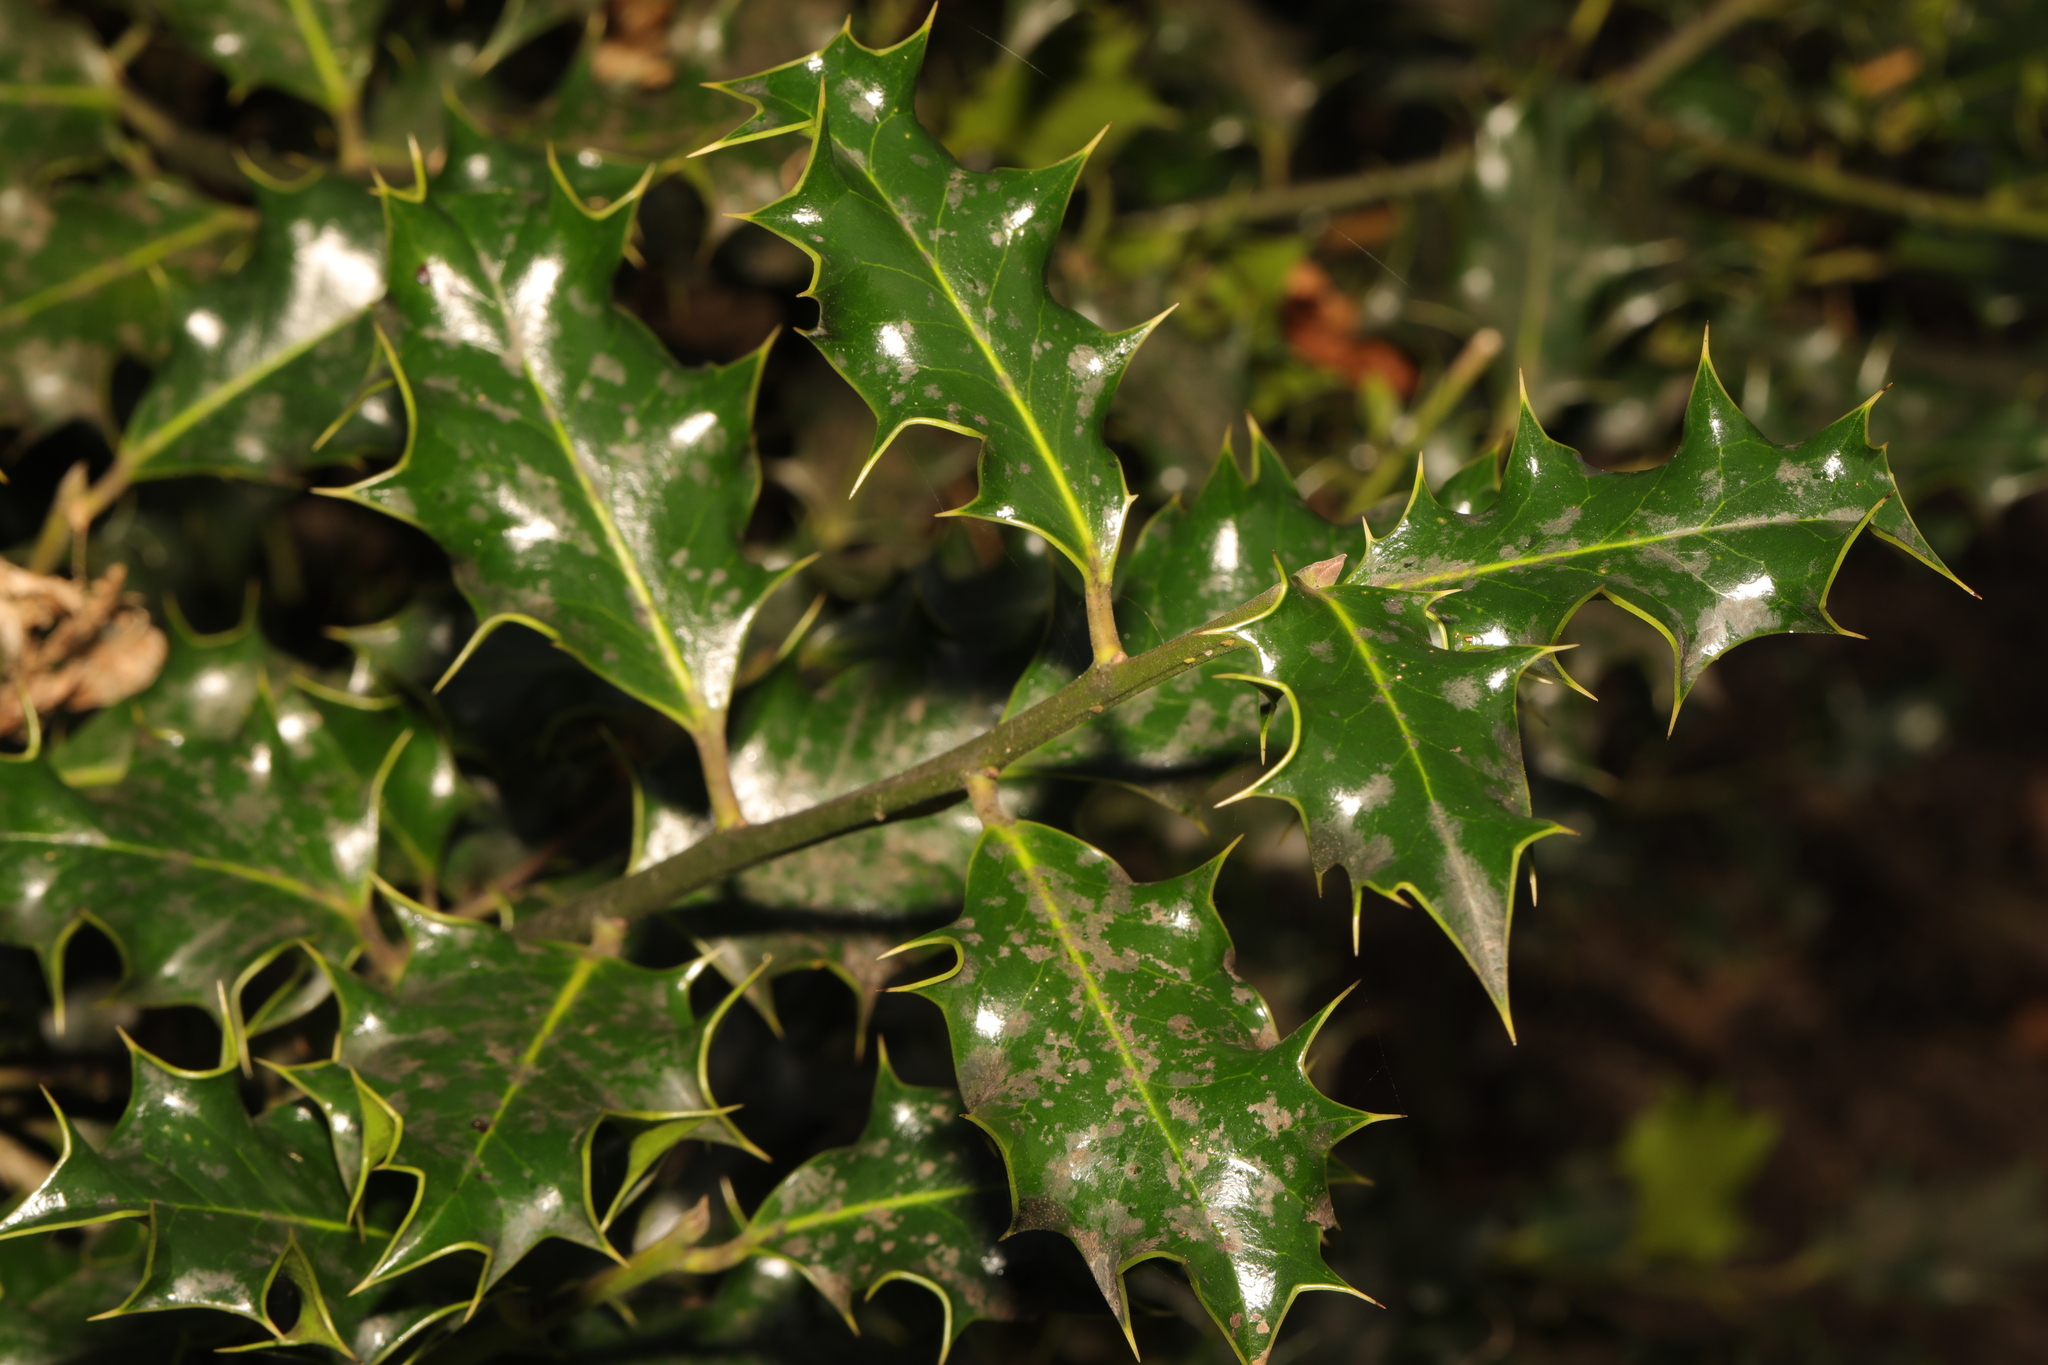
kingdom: Plantae
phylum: Tracheophyta
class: Magnoliopsida
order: Aquifoliales
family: Aquifoliaceae
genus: Ilex
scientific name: Ilex aquifolium
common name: English holly
